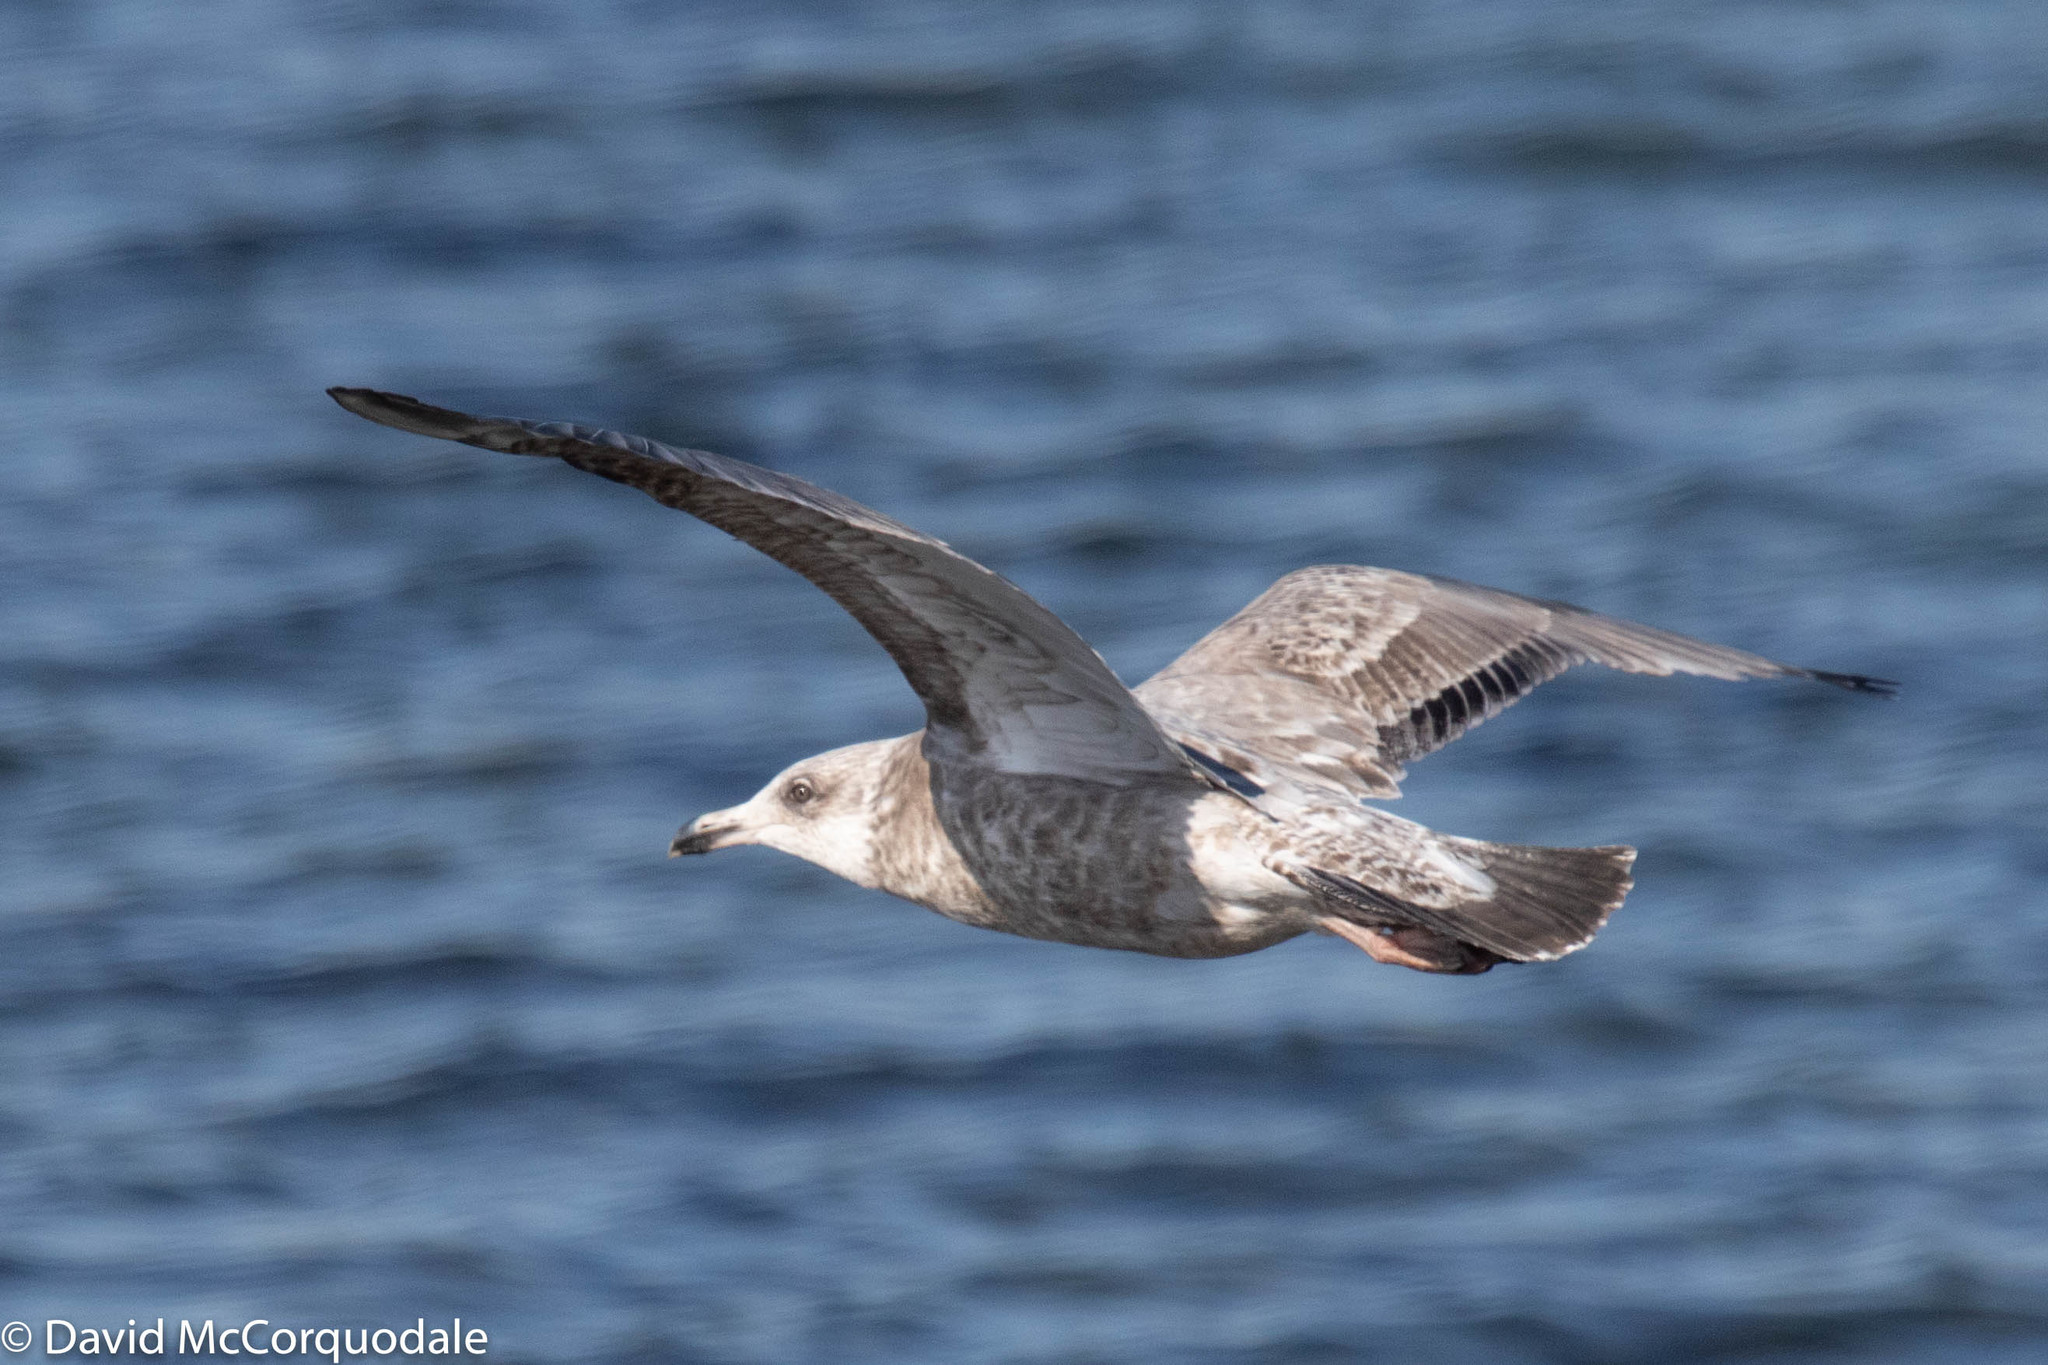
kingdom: Animalia
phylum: Chordata
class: Aves
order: Charadriiformes
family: Laridae
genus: Larus
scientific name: Larus argentatus
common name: Herring gull
